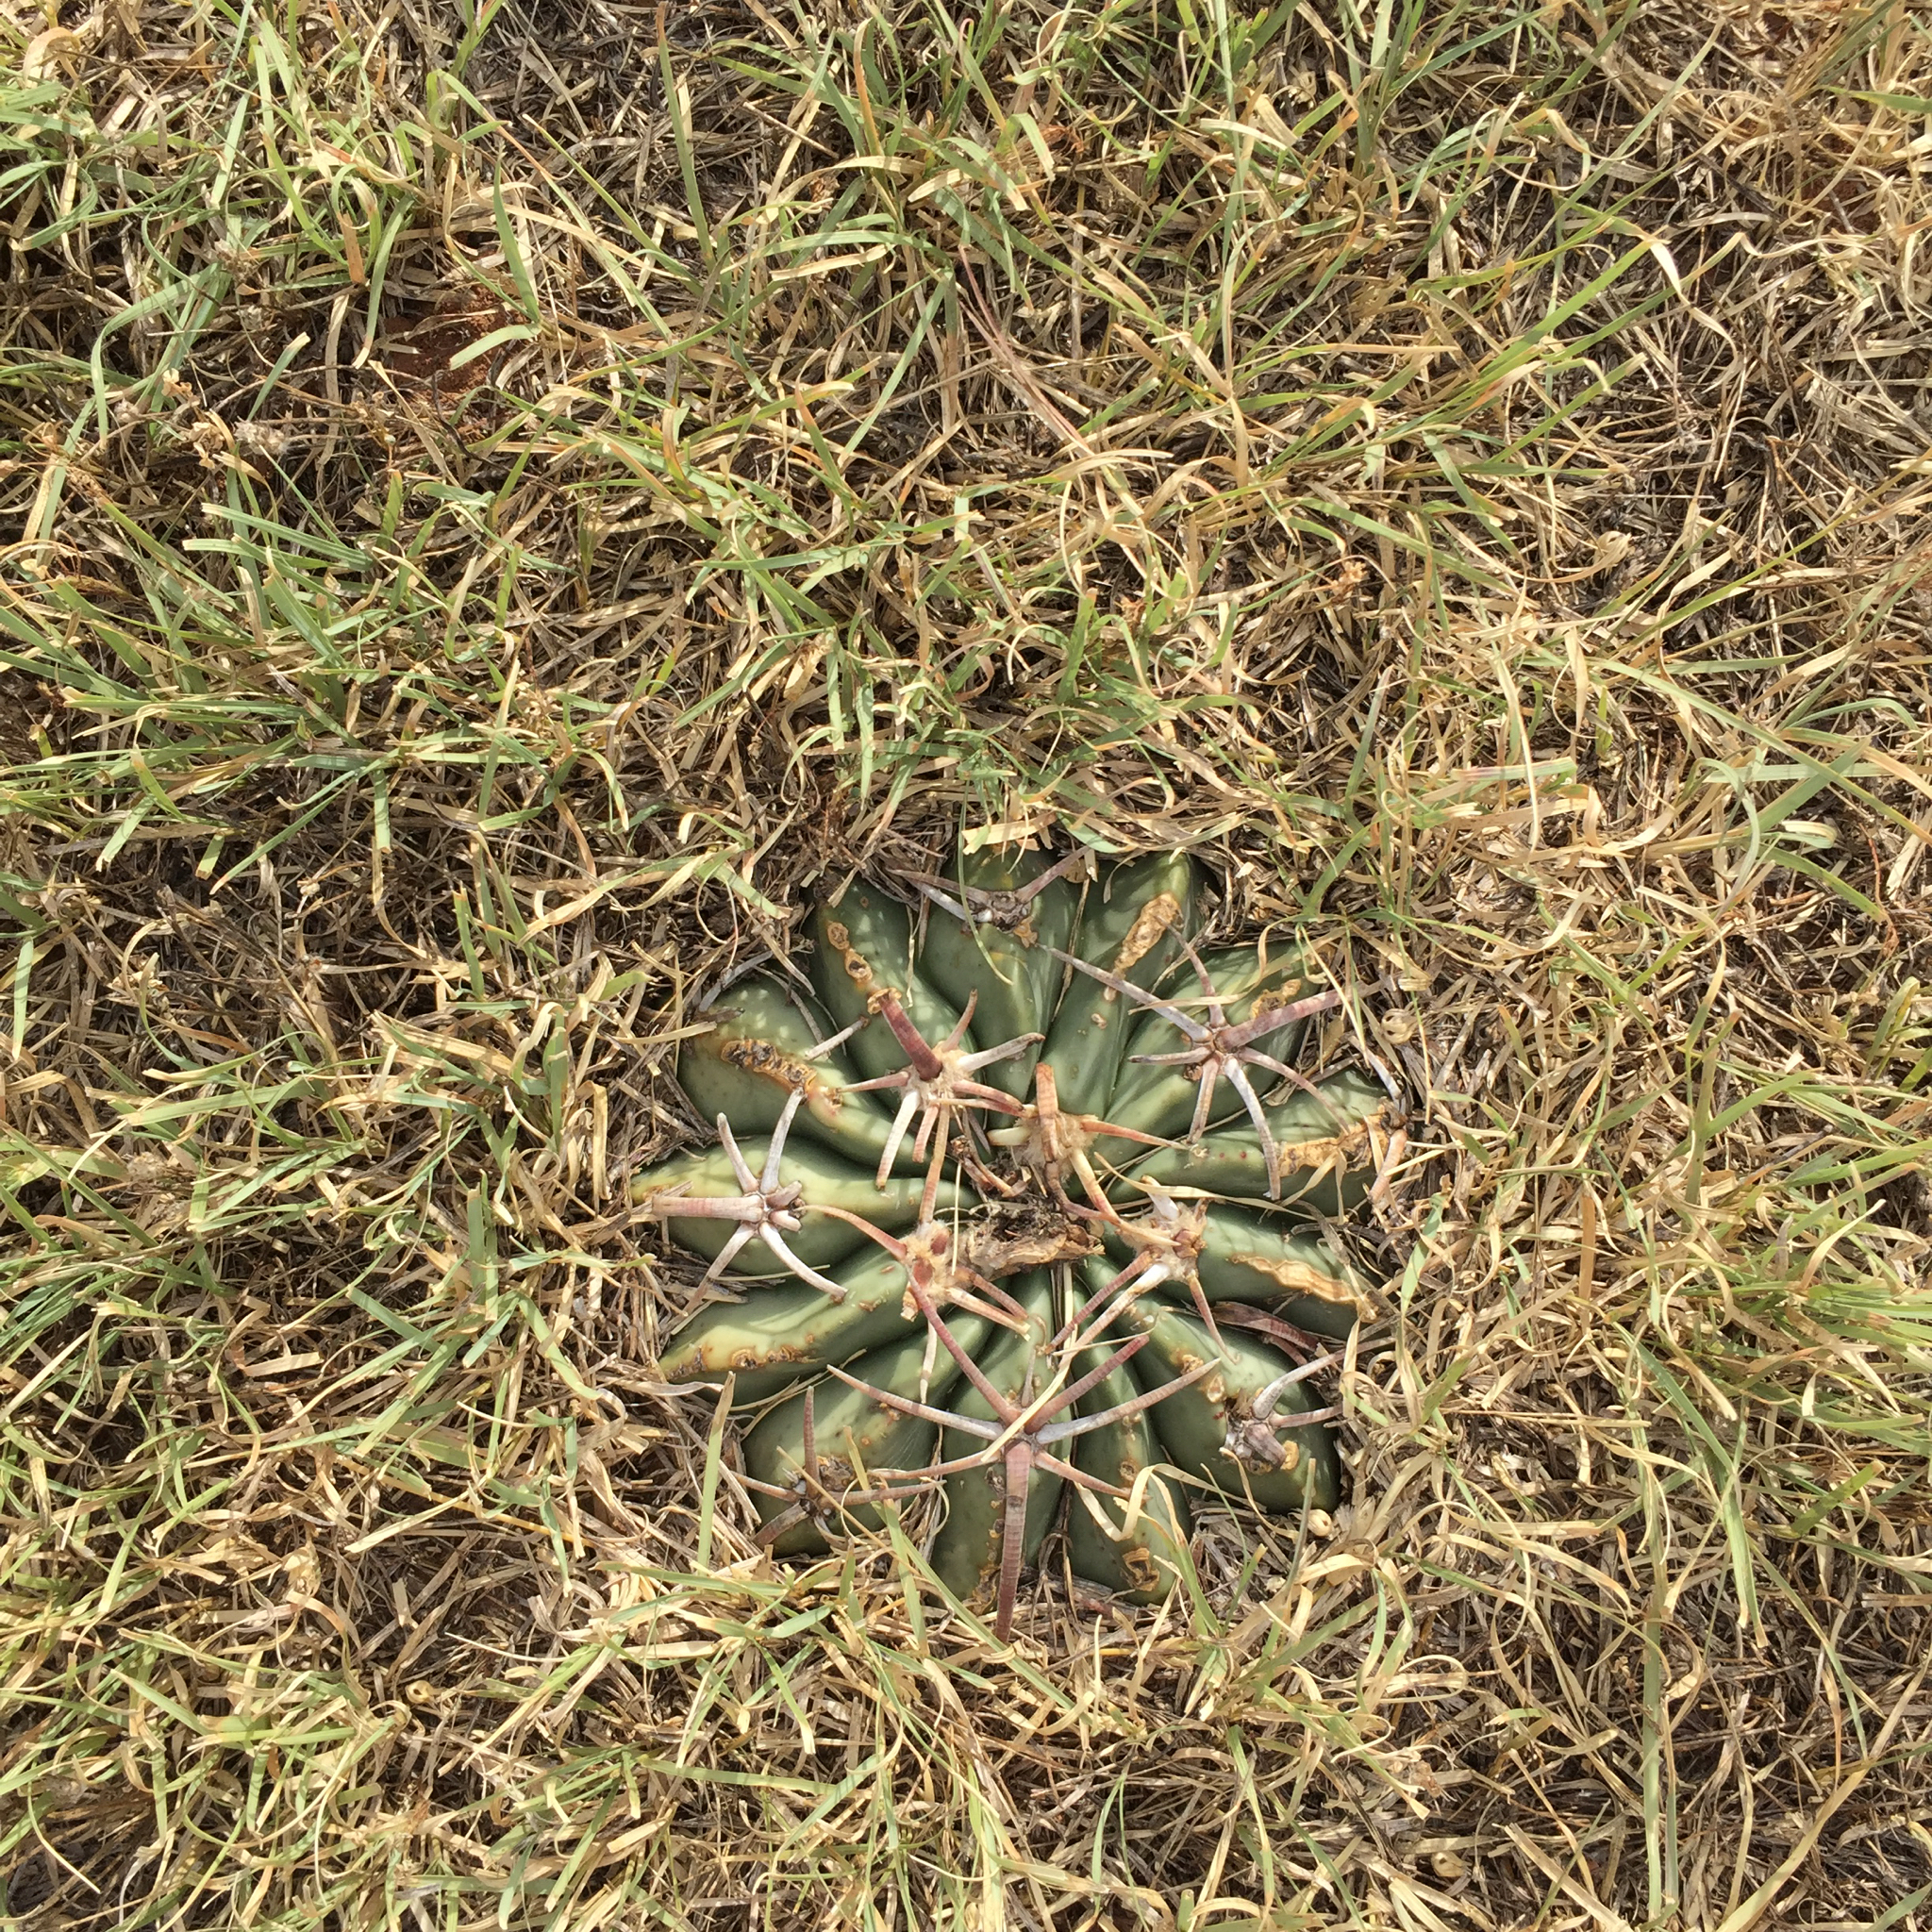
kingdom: Plantae
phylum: Tracheophyta
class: Magnoliopsida
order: Caryophyllales
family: Cactaceae
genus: Echinocactus
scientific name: Echinocactus texensis
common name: Devil's pincushion
